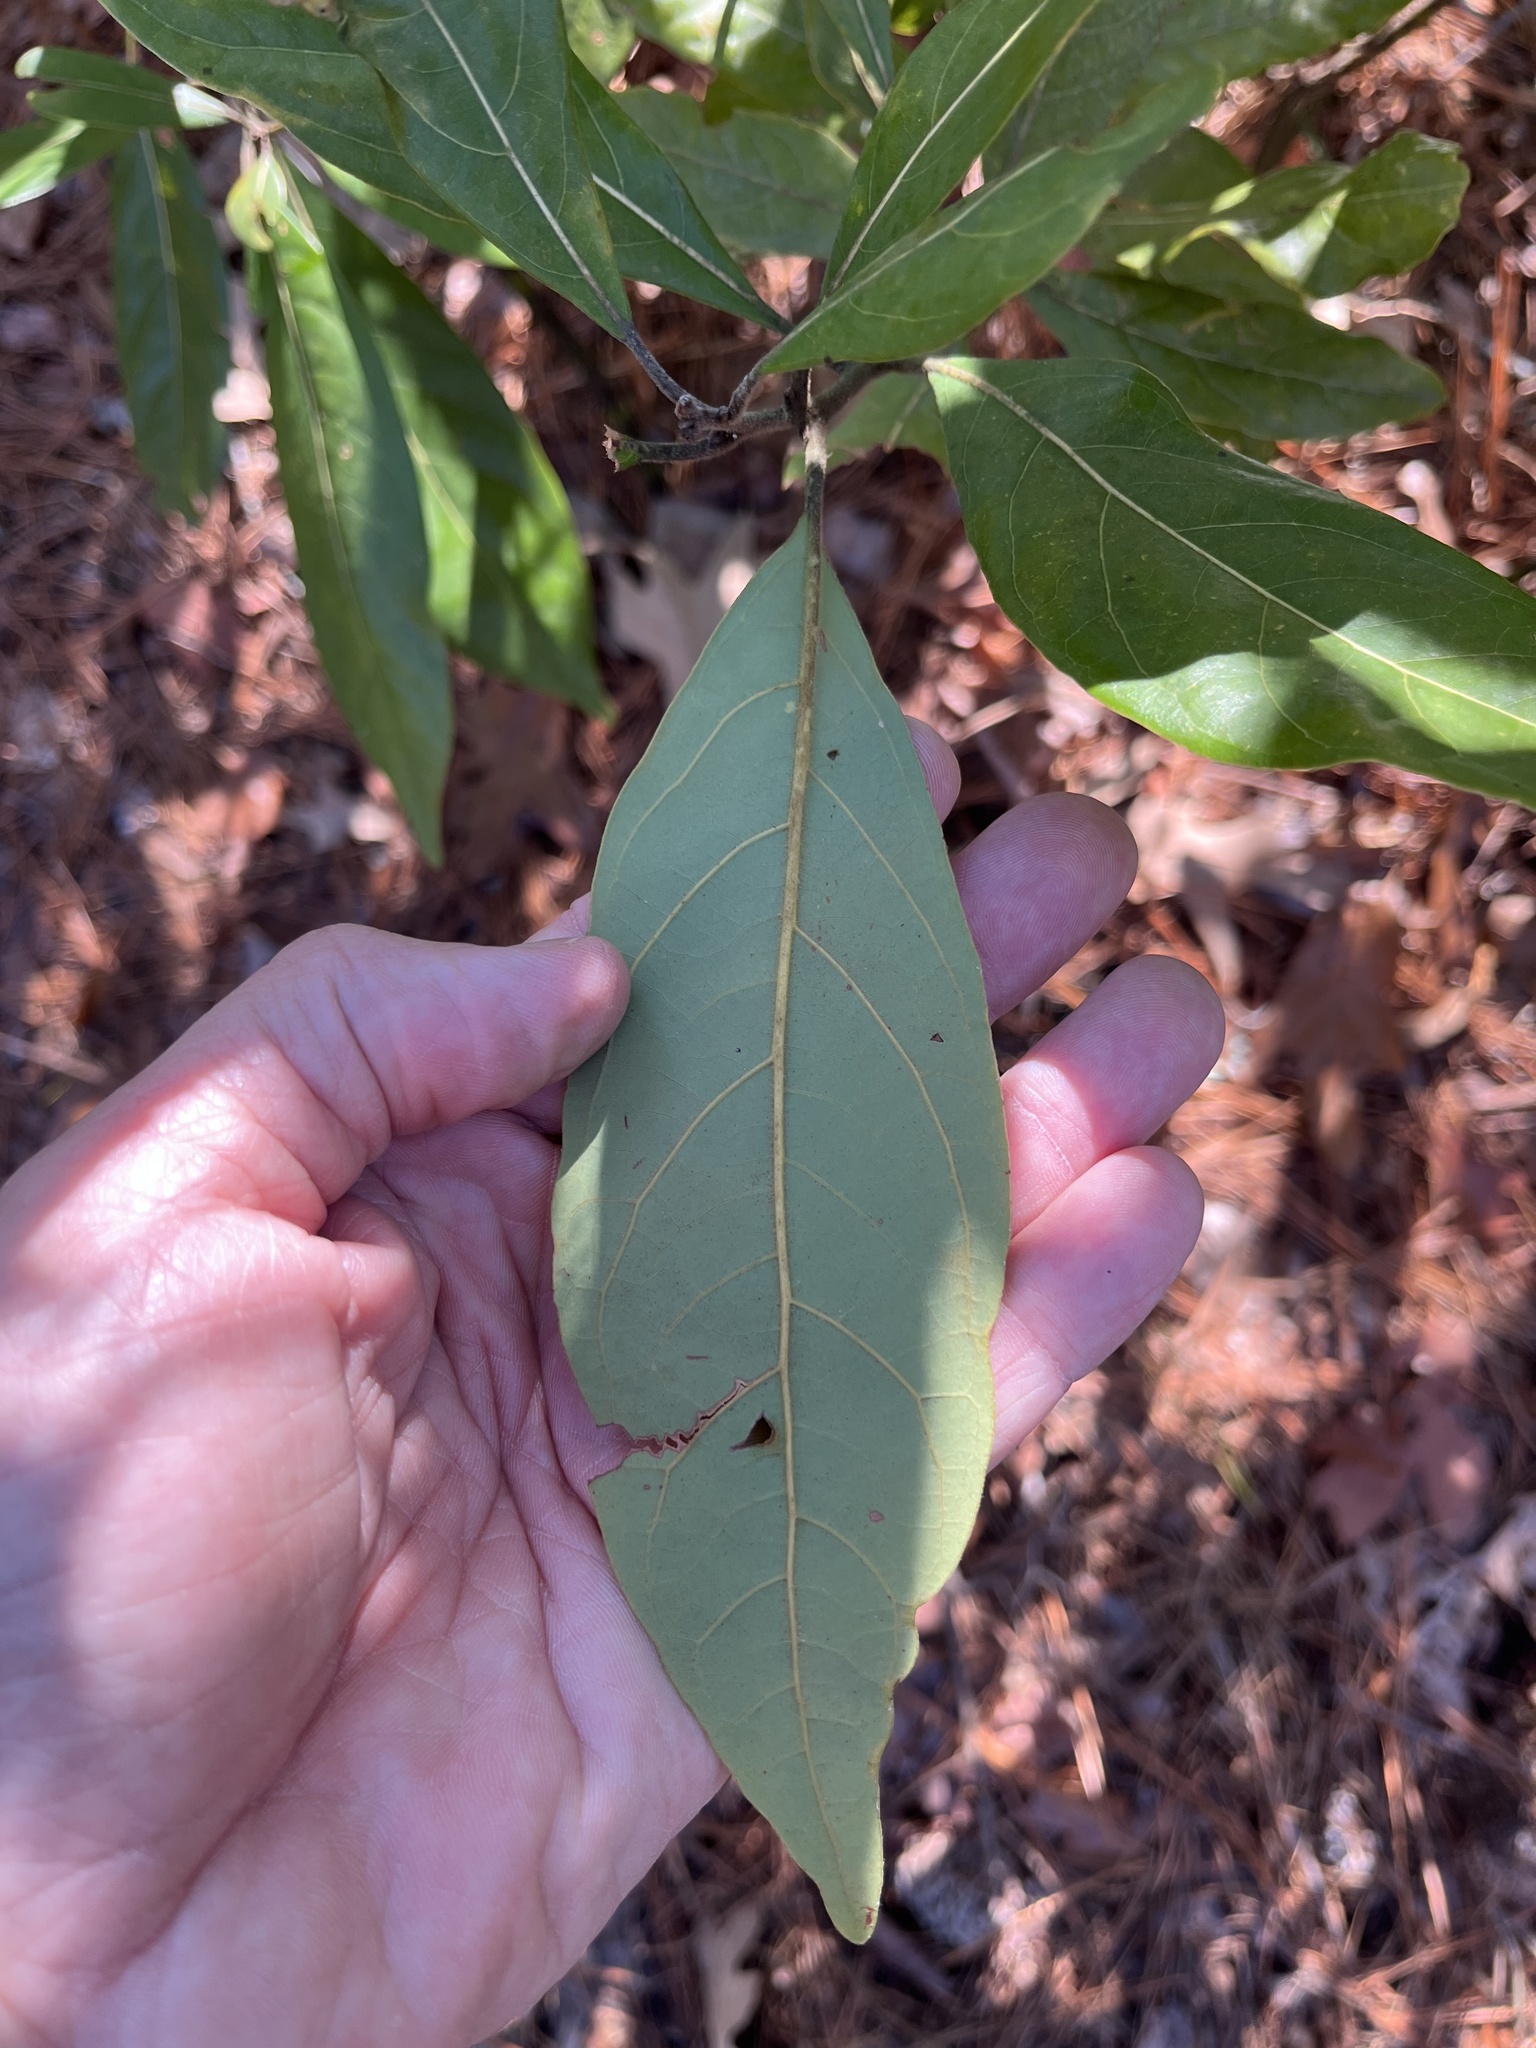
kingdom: Plantae
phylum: Tracheophyta
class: Magnoliopsida
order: Laurales
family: Lauraceae
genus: Persea
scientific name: Persea palustris
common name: Swampbay
